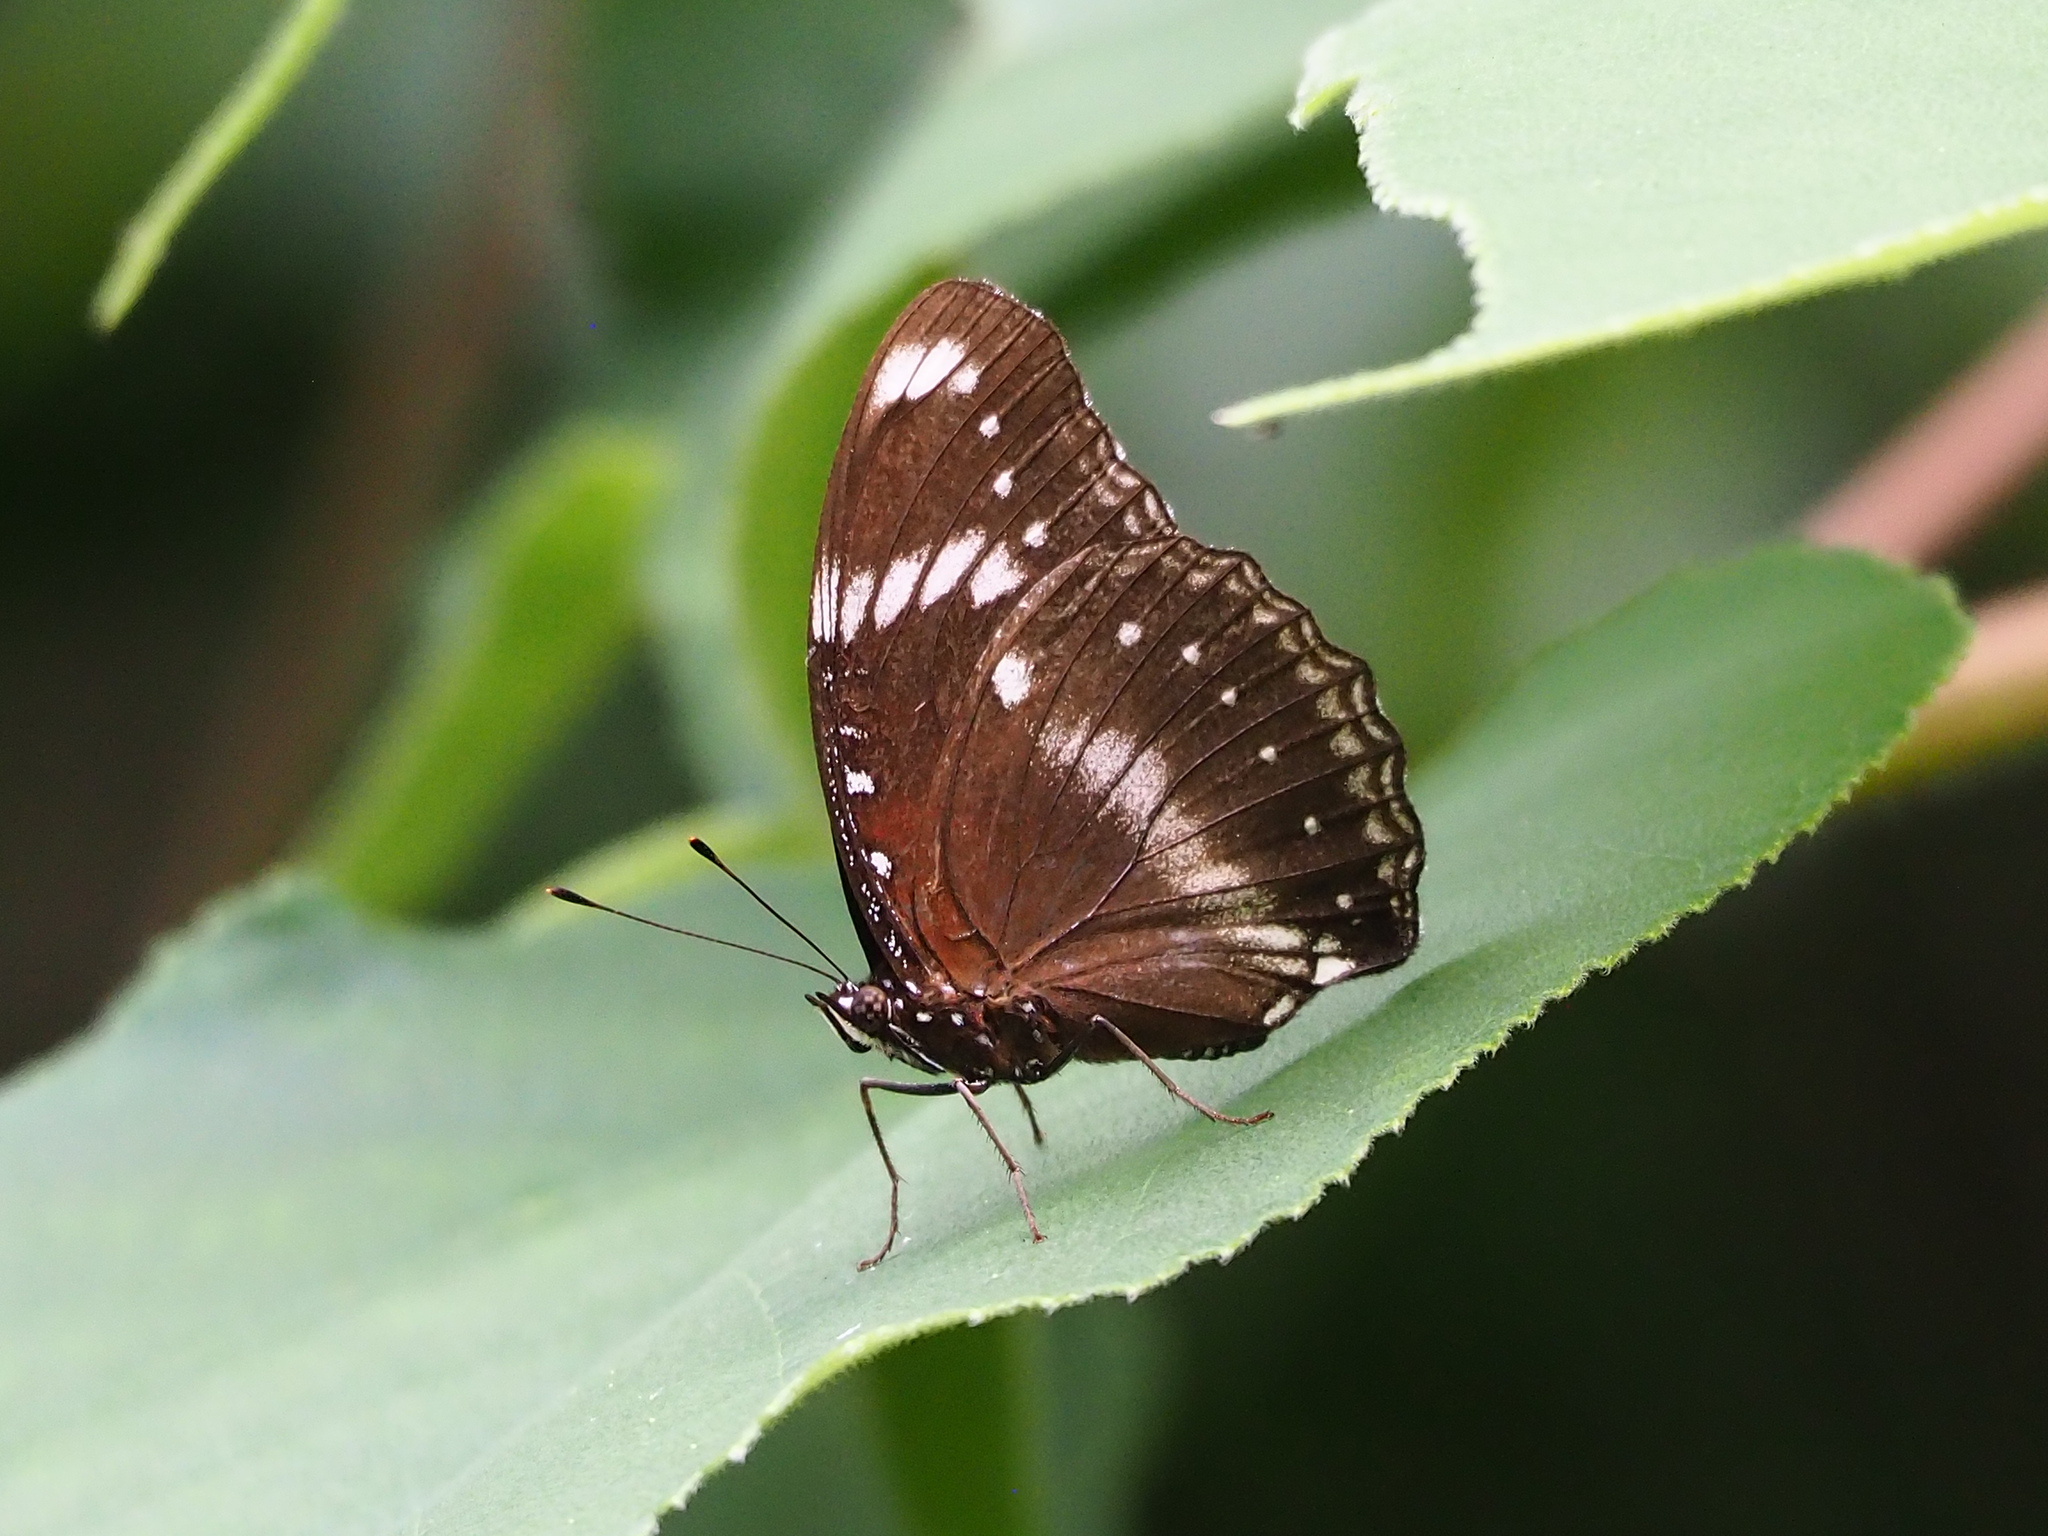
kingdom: Animalia
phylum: Arthropoda
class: Insecta
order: Lepidoptera
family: Nymphalidae
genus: Hypolimnas
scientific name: Hypolimnas bolina
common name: Great eggfly
